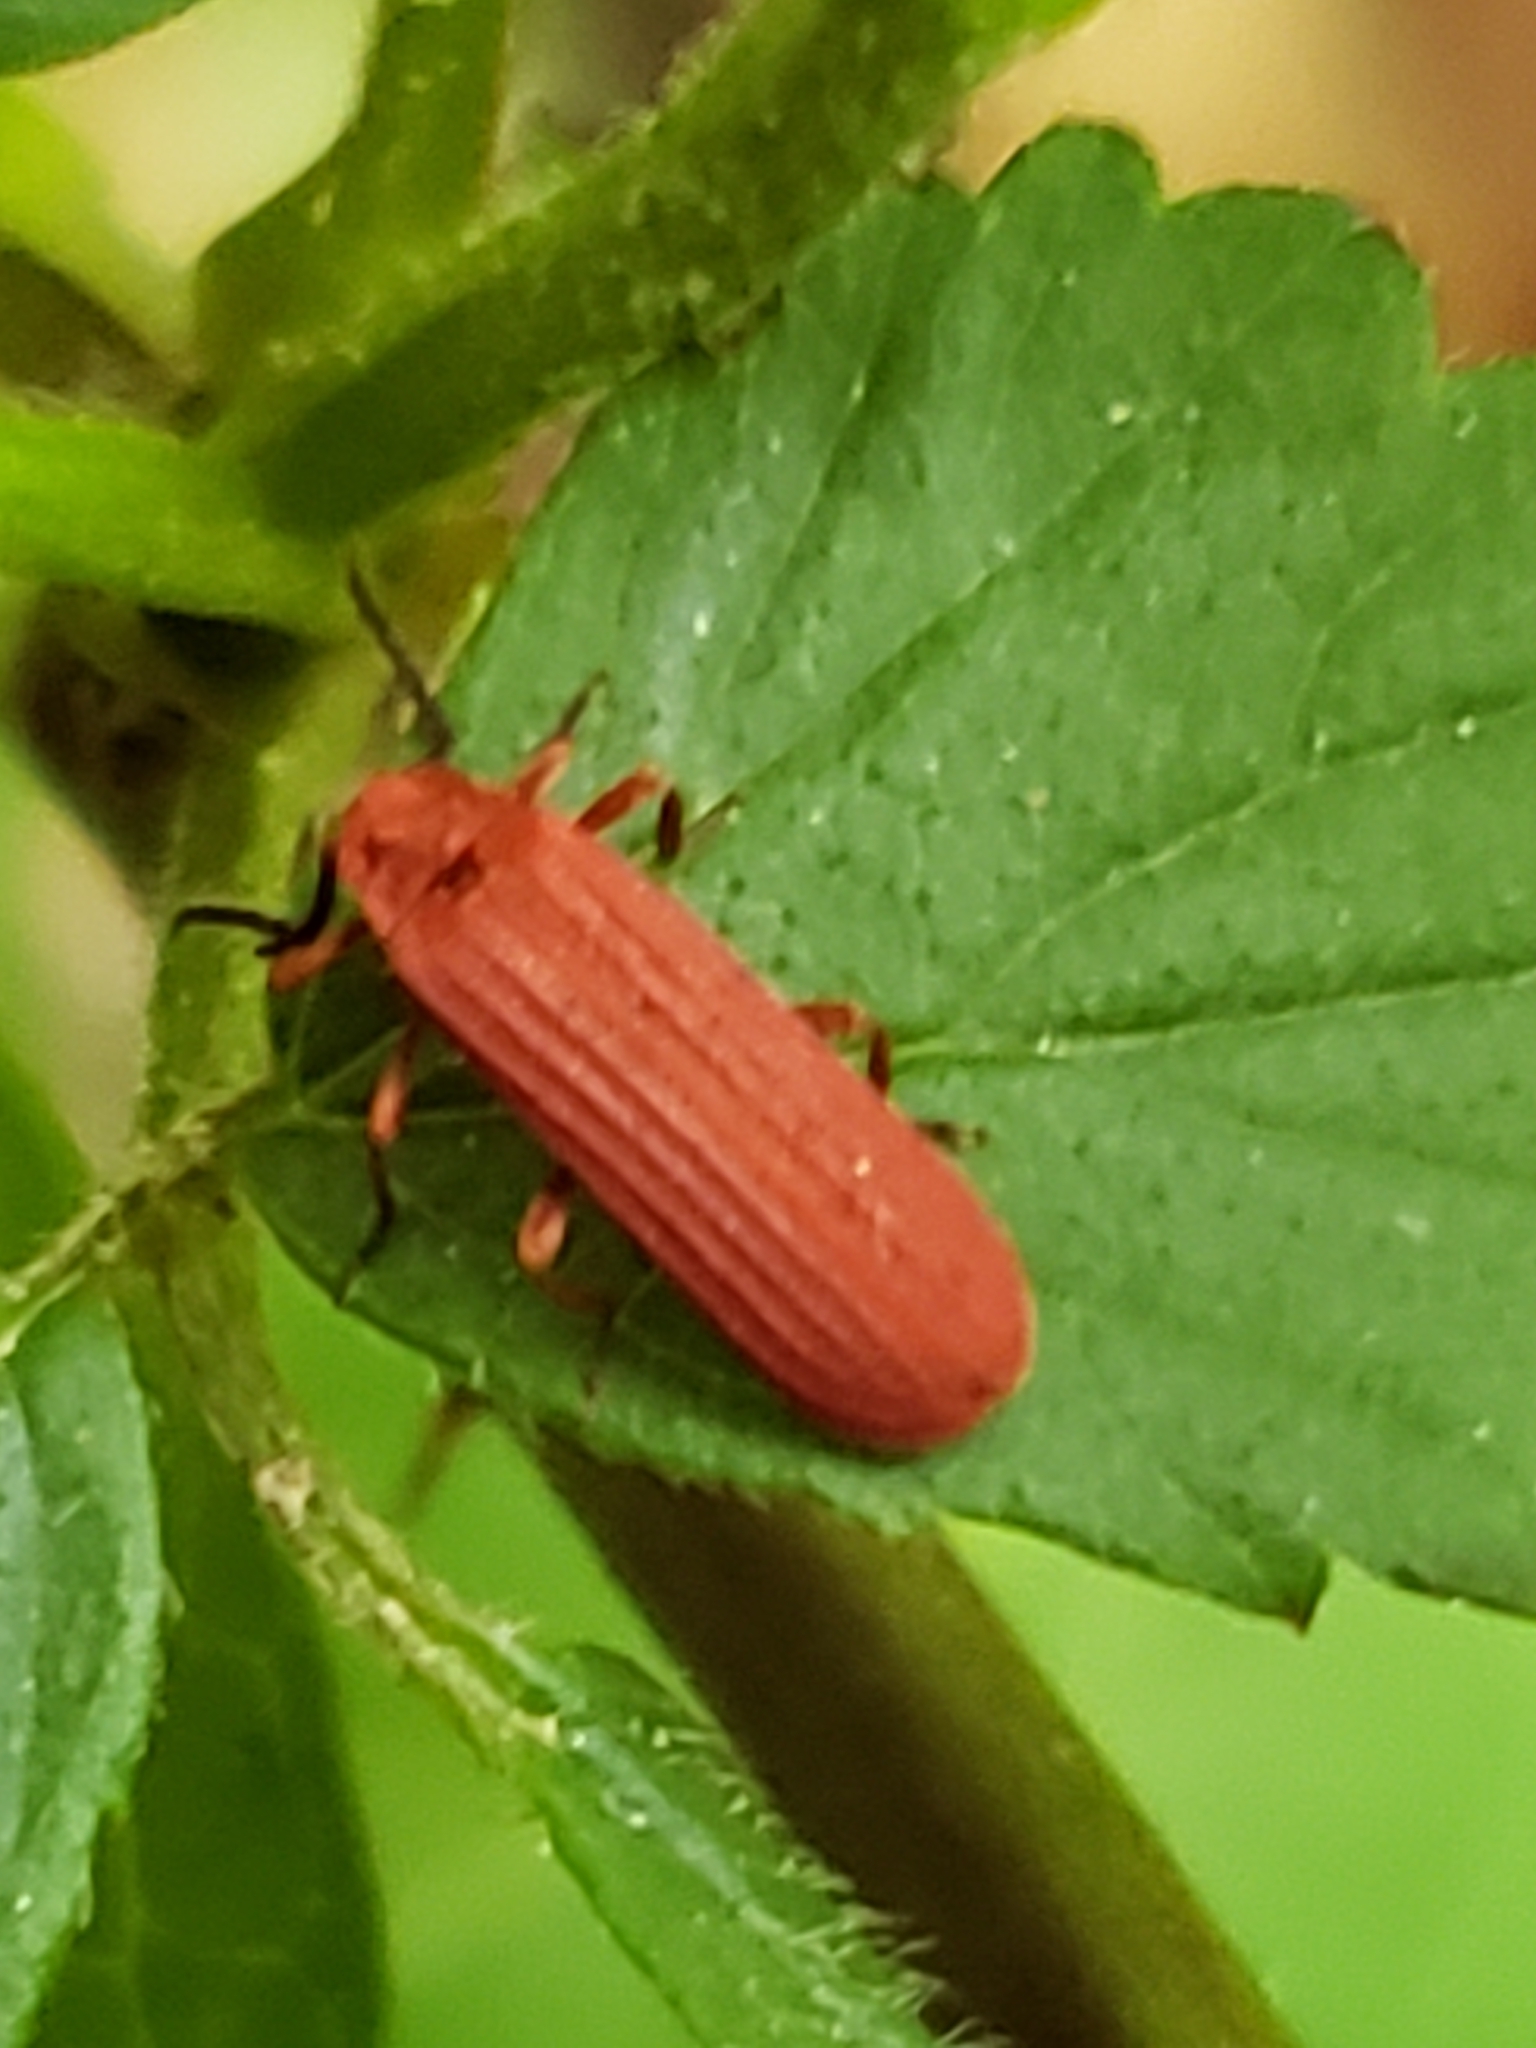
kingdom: Animalia
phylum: Arthropoda
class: Insecta
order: Coleoptera
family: Lycidae
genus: Punicealis
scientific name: Punicealis
